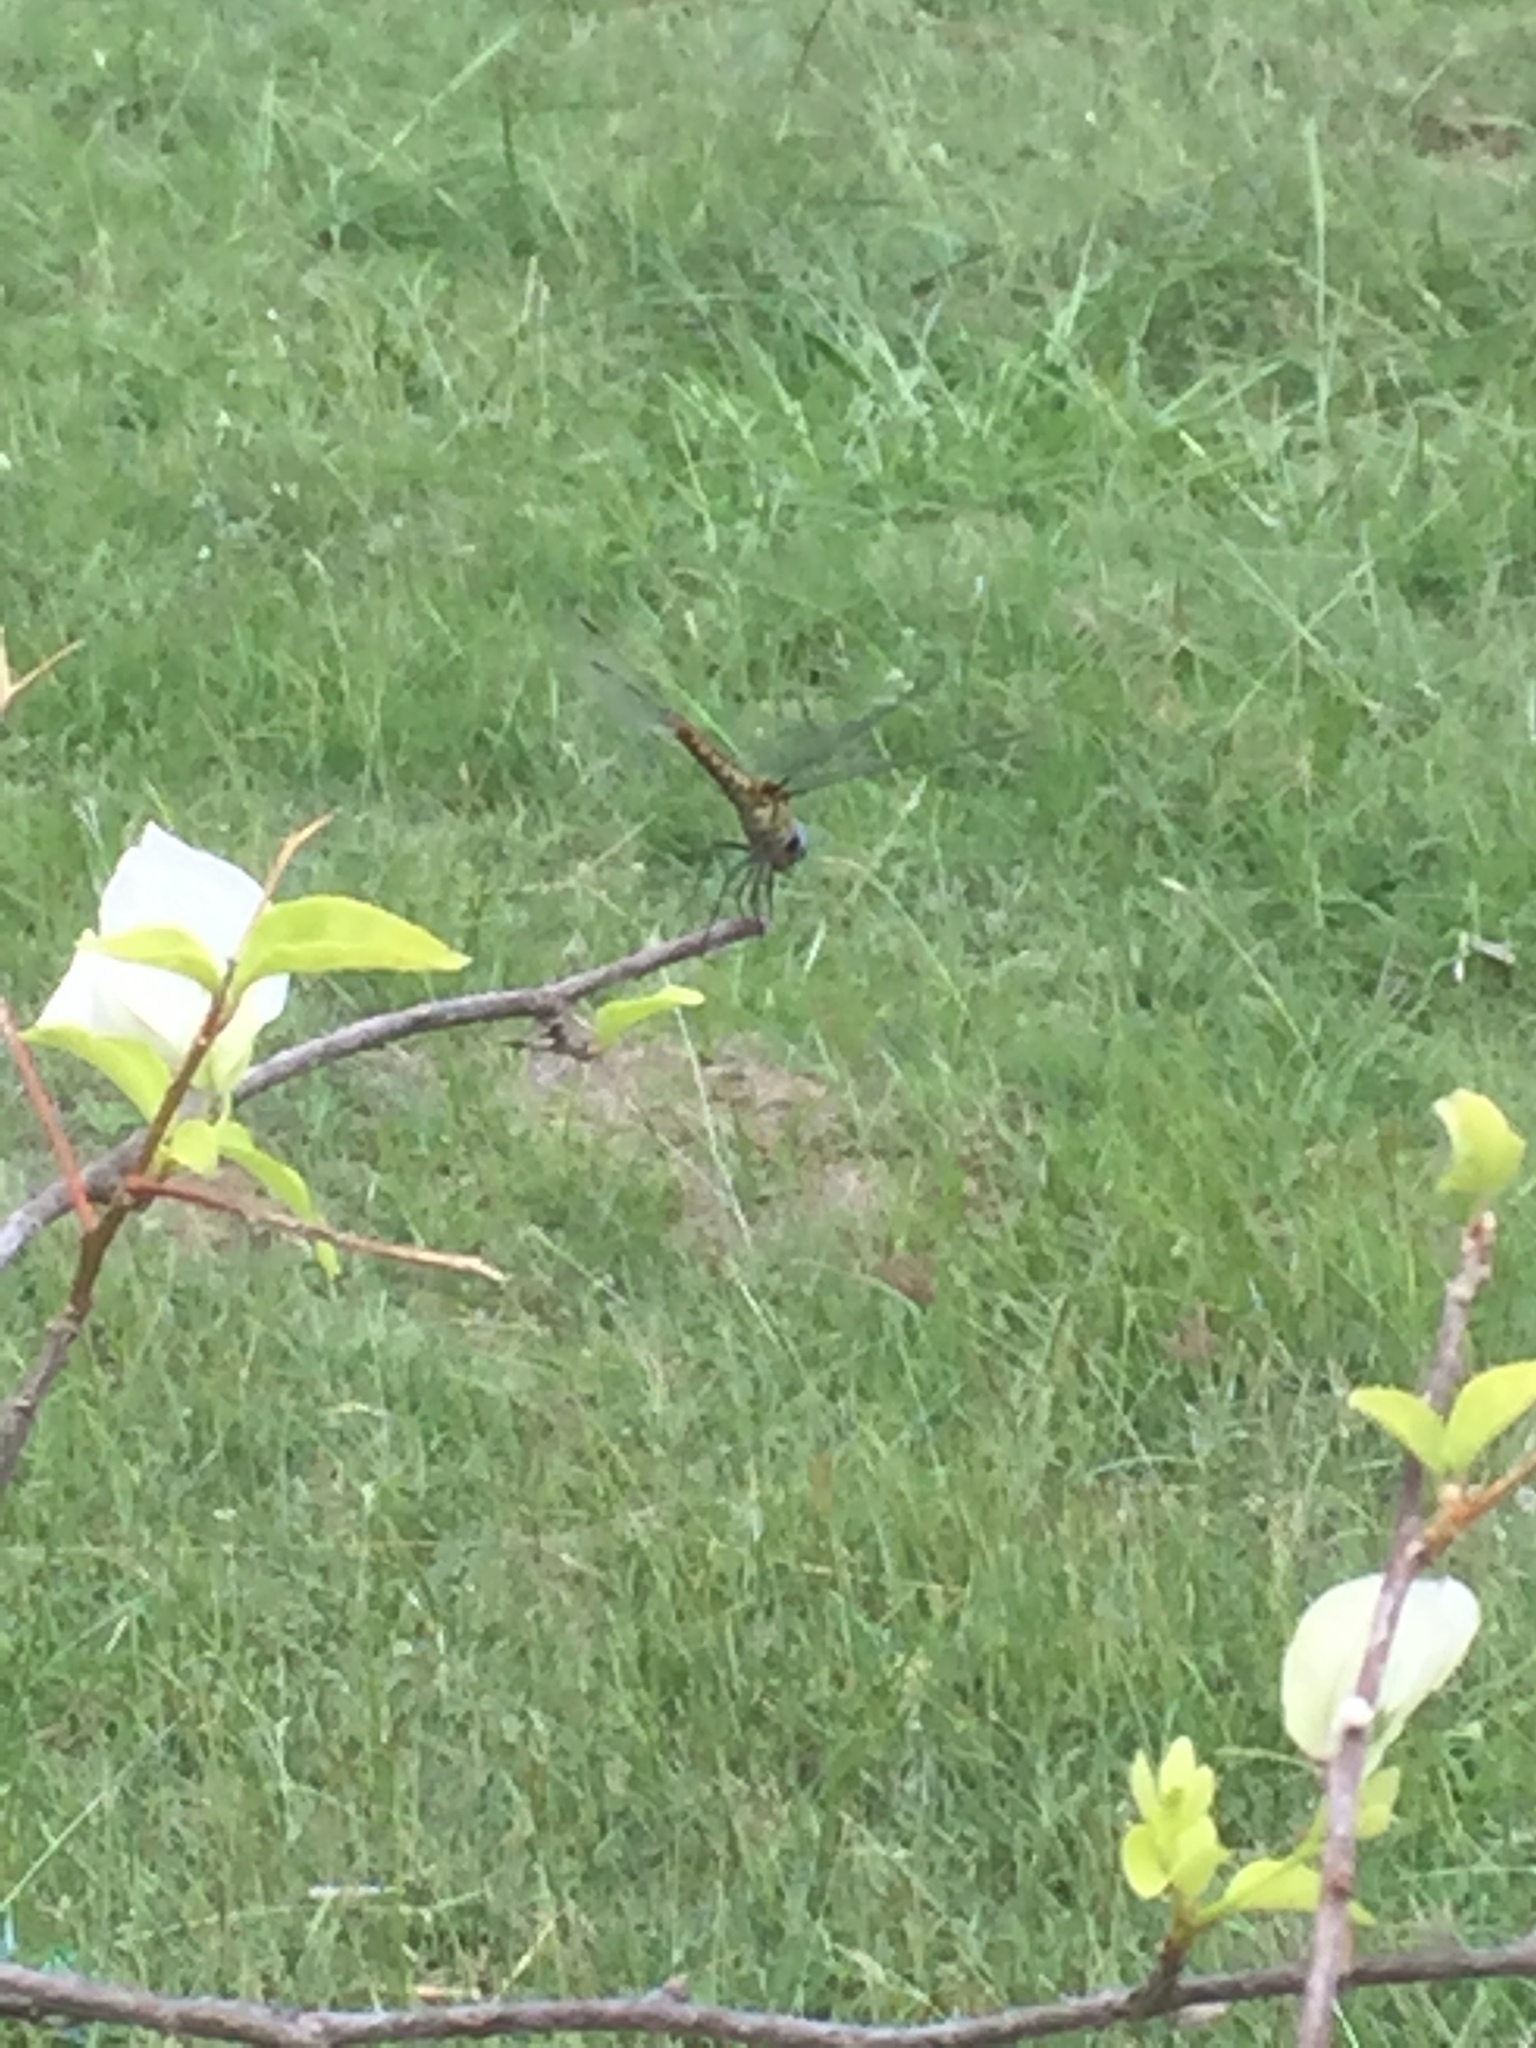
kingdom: Animalia
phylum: Arthropoda
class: Insecta
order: Odonata
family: Libellulidae
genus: Urothemis
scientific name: Urothemis signata
